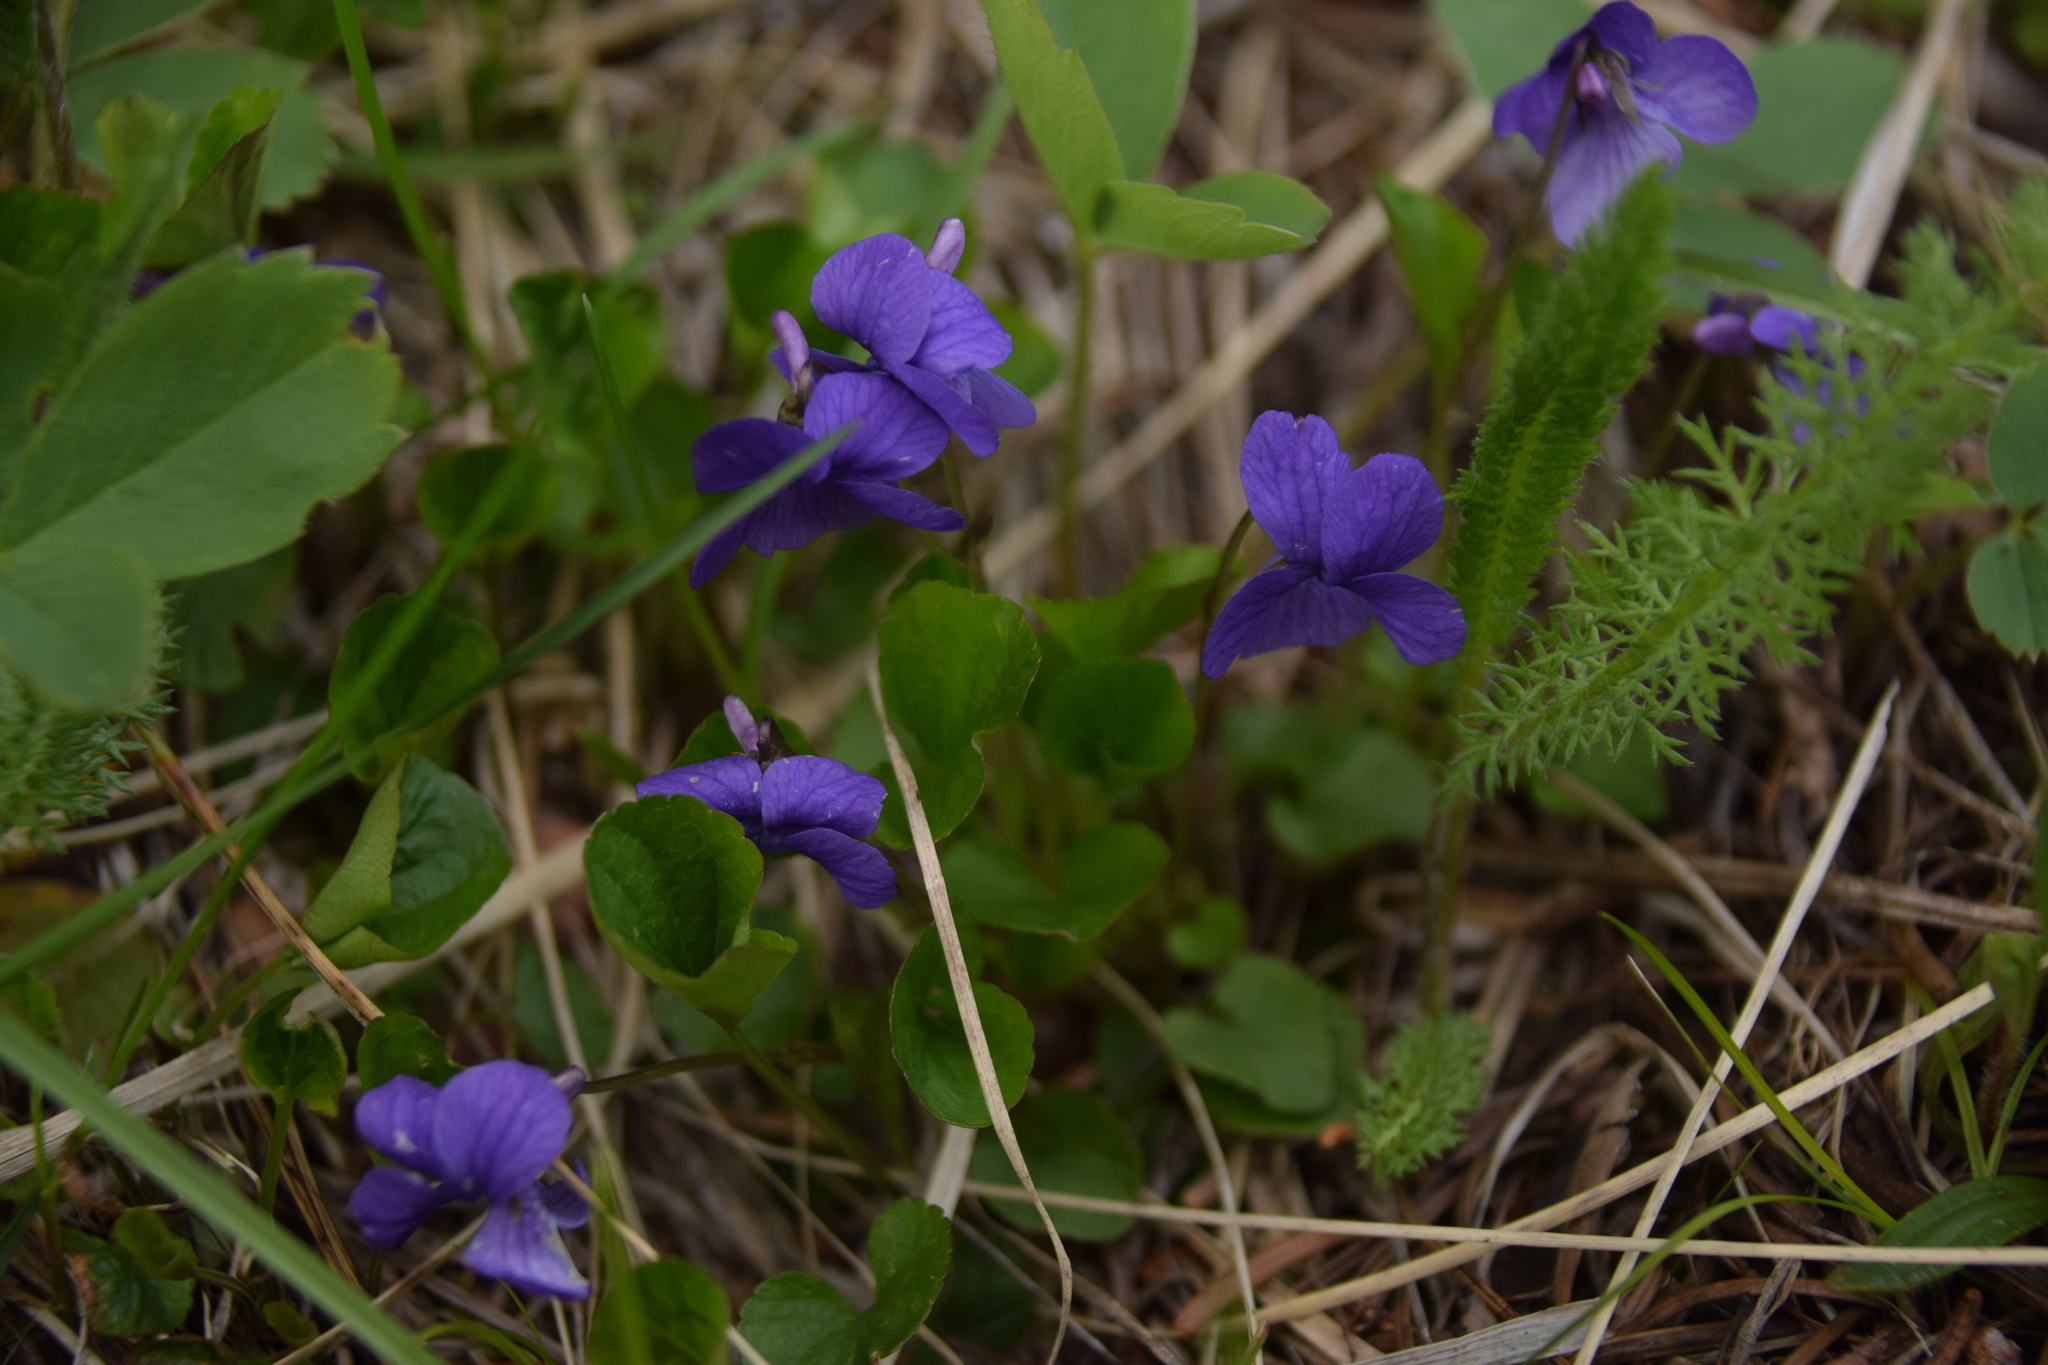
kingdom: Plantae
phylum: Tracheophyta
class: Magnoliopsida
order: Malpighiales
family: Violaceae
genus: Viola
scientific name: Viola adunca
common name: Sand violet
